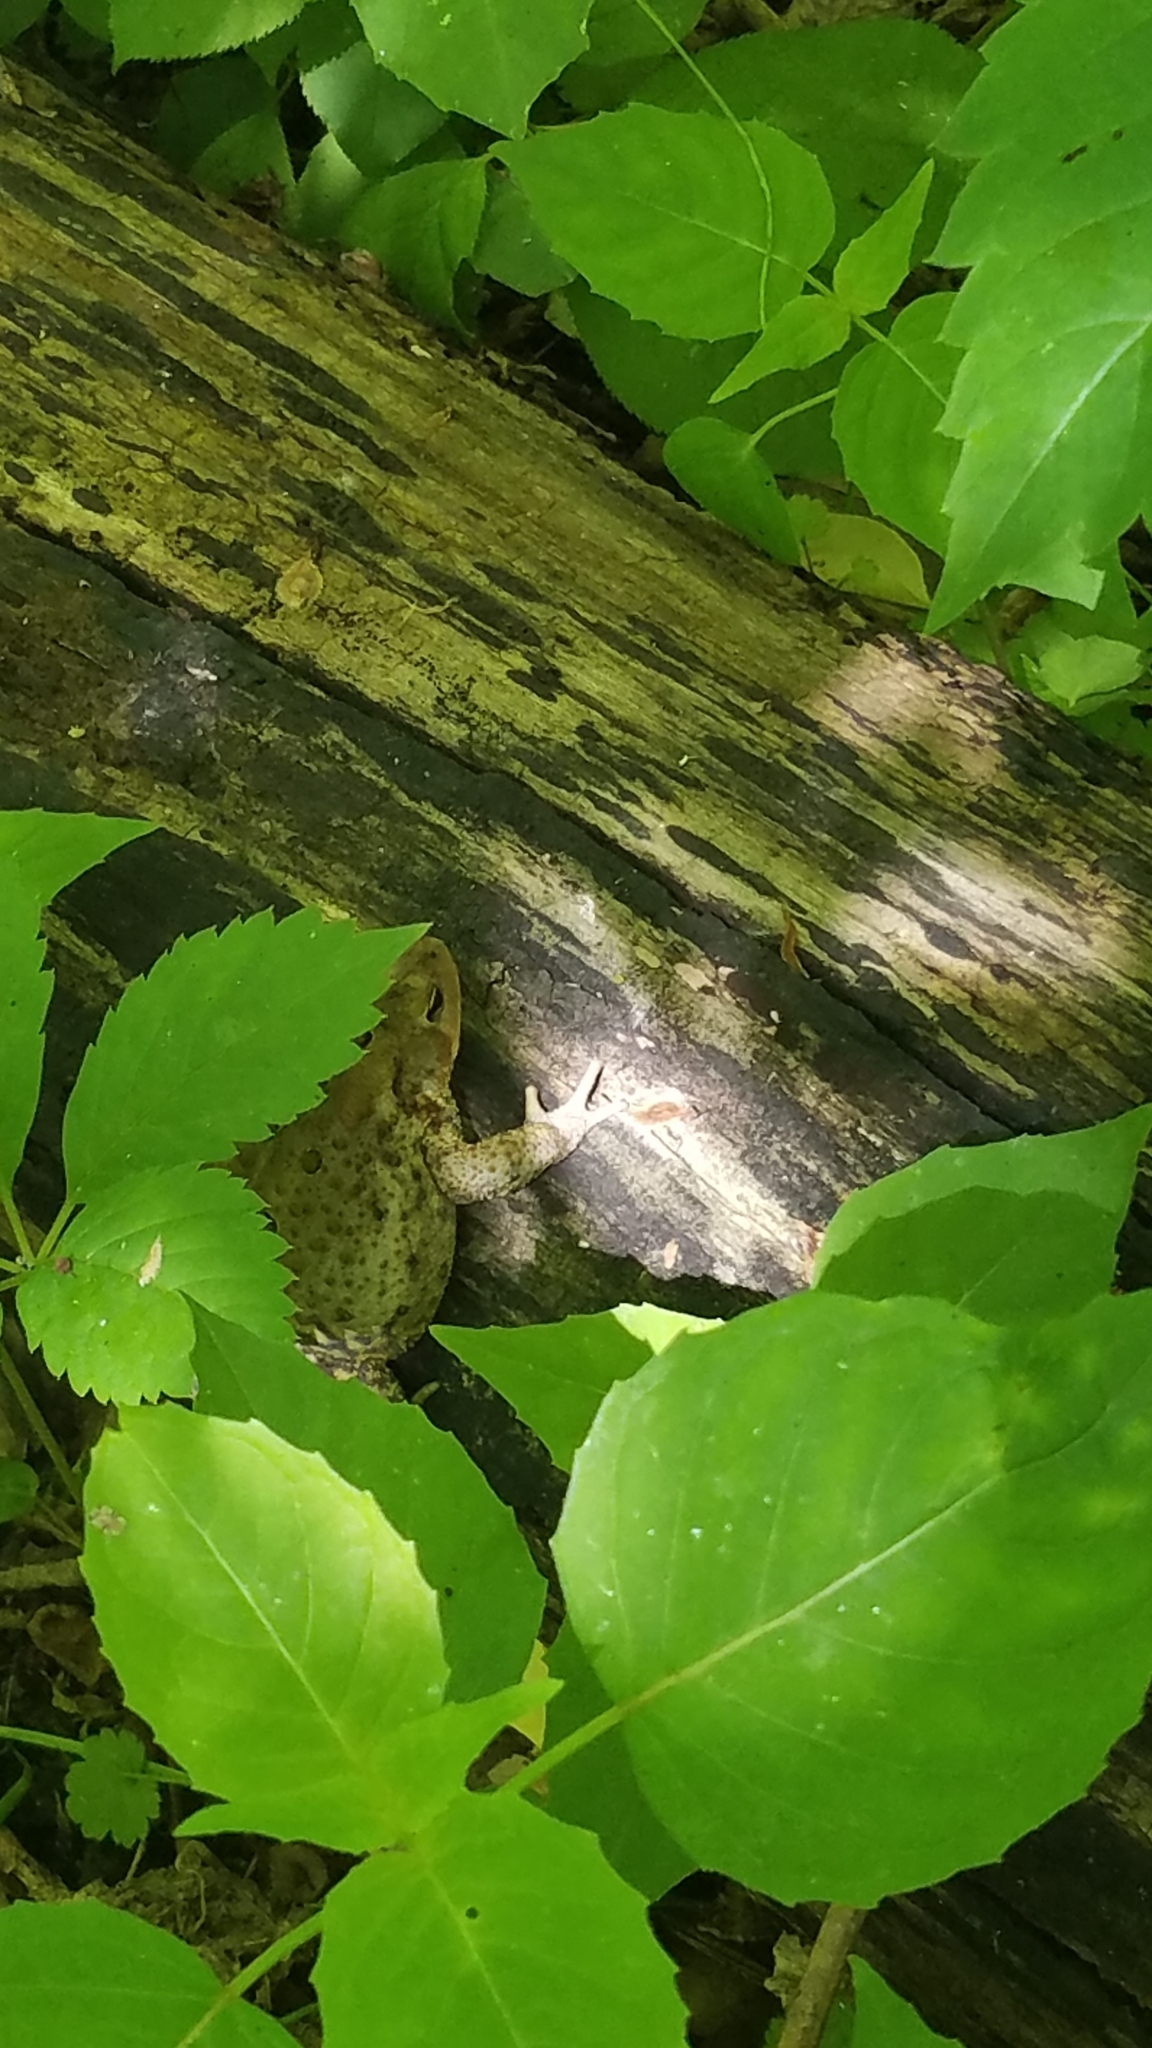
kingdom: Animalia
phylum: Chordata
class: Amphibia
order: Anura
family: Bufonidae
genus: Anaxyrus
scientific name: Anaxyrus americanus
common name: American toad
